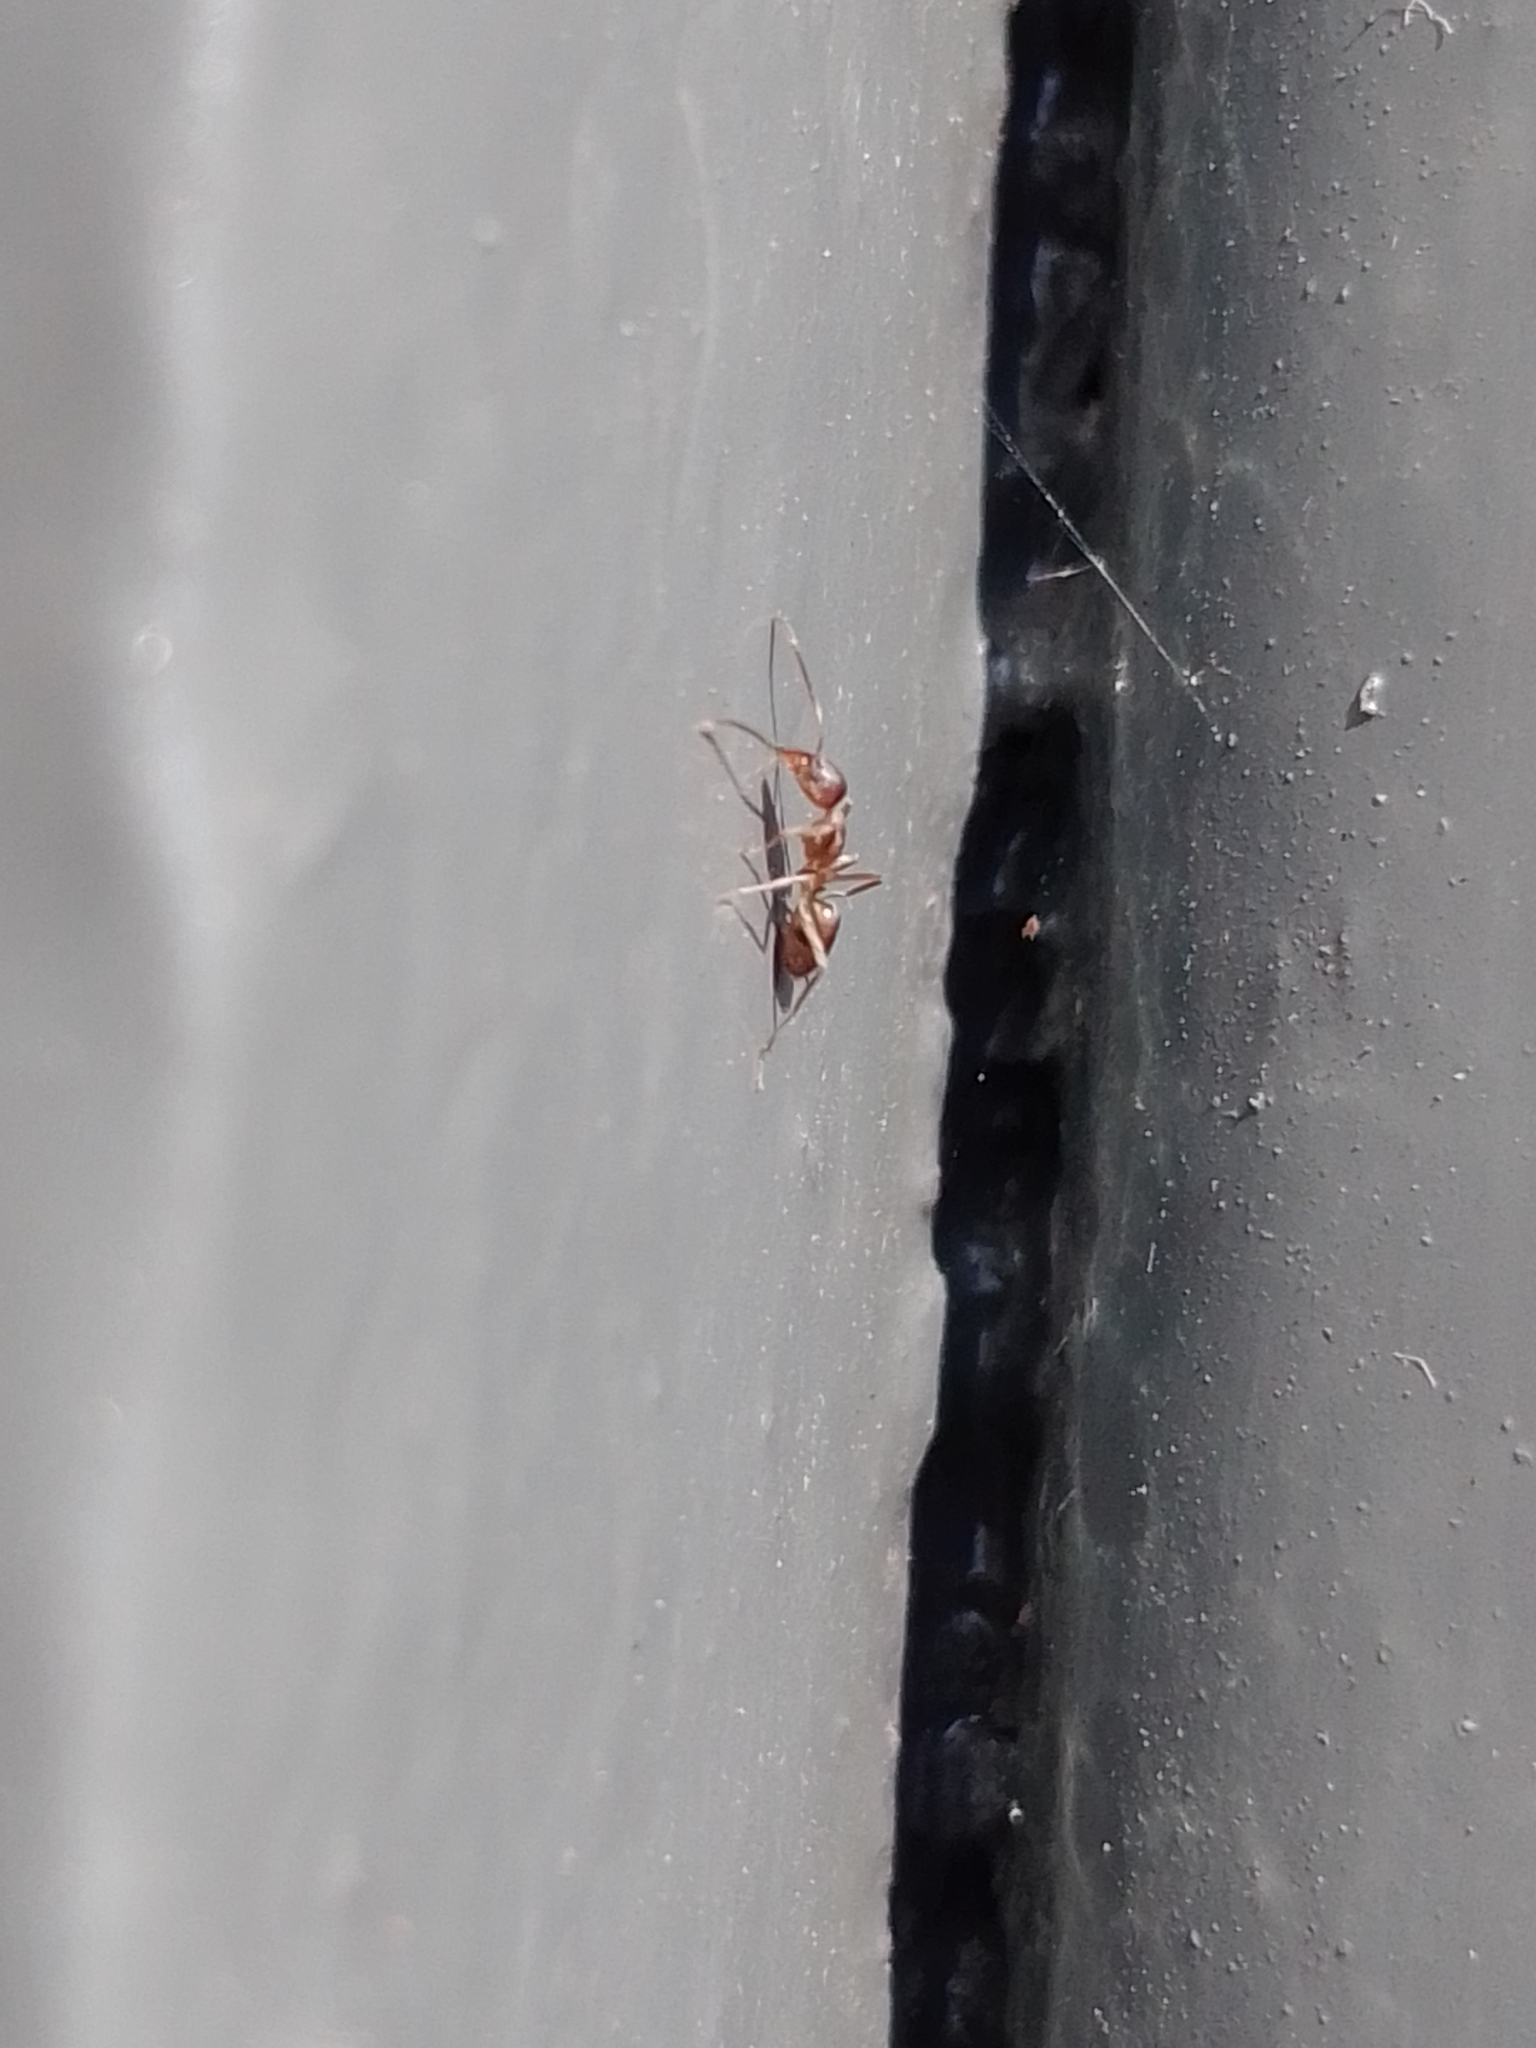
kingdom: Animalia
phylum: Arthropoda
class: Insecta
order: Hymenoptera
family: Formicidae
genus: Linepithema
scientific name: Linepithema humile
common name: Argentine ant
